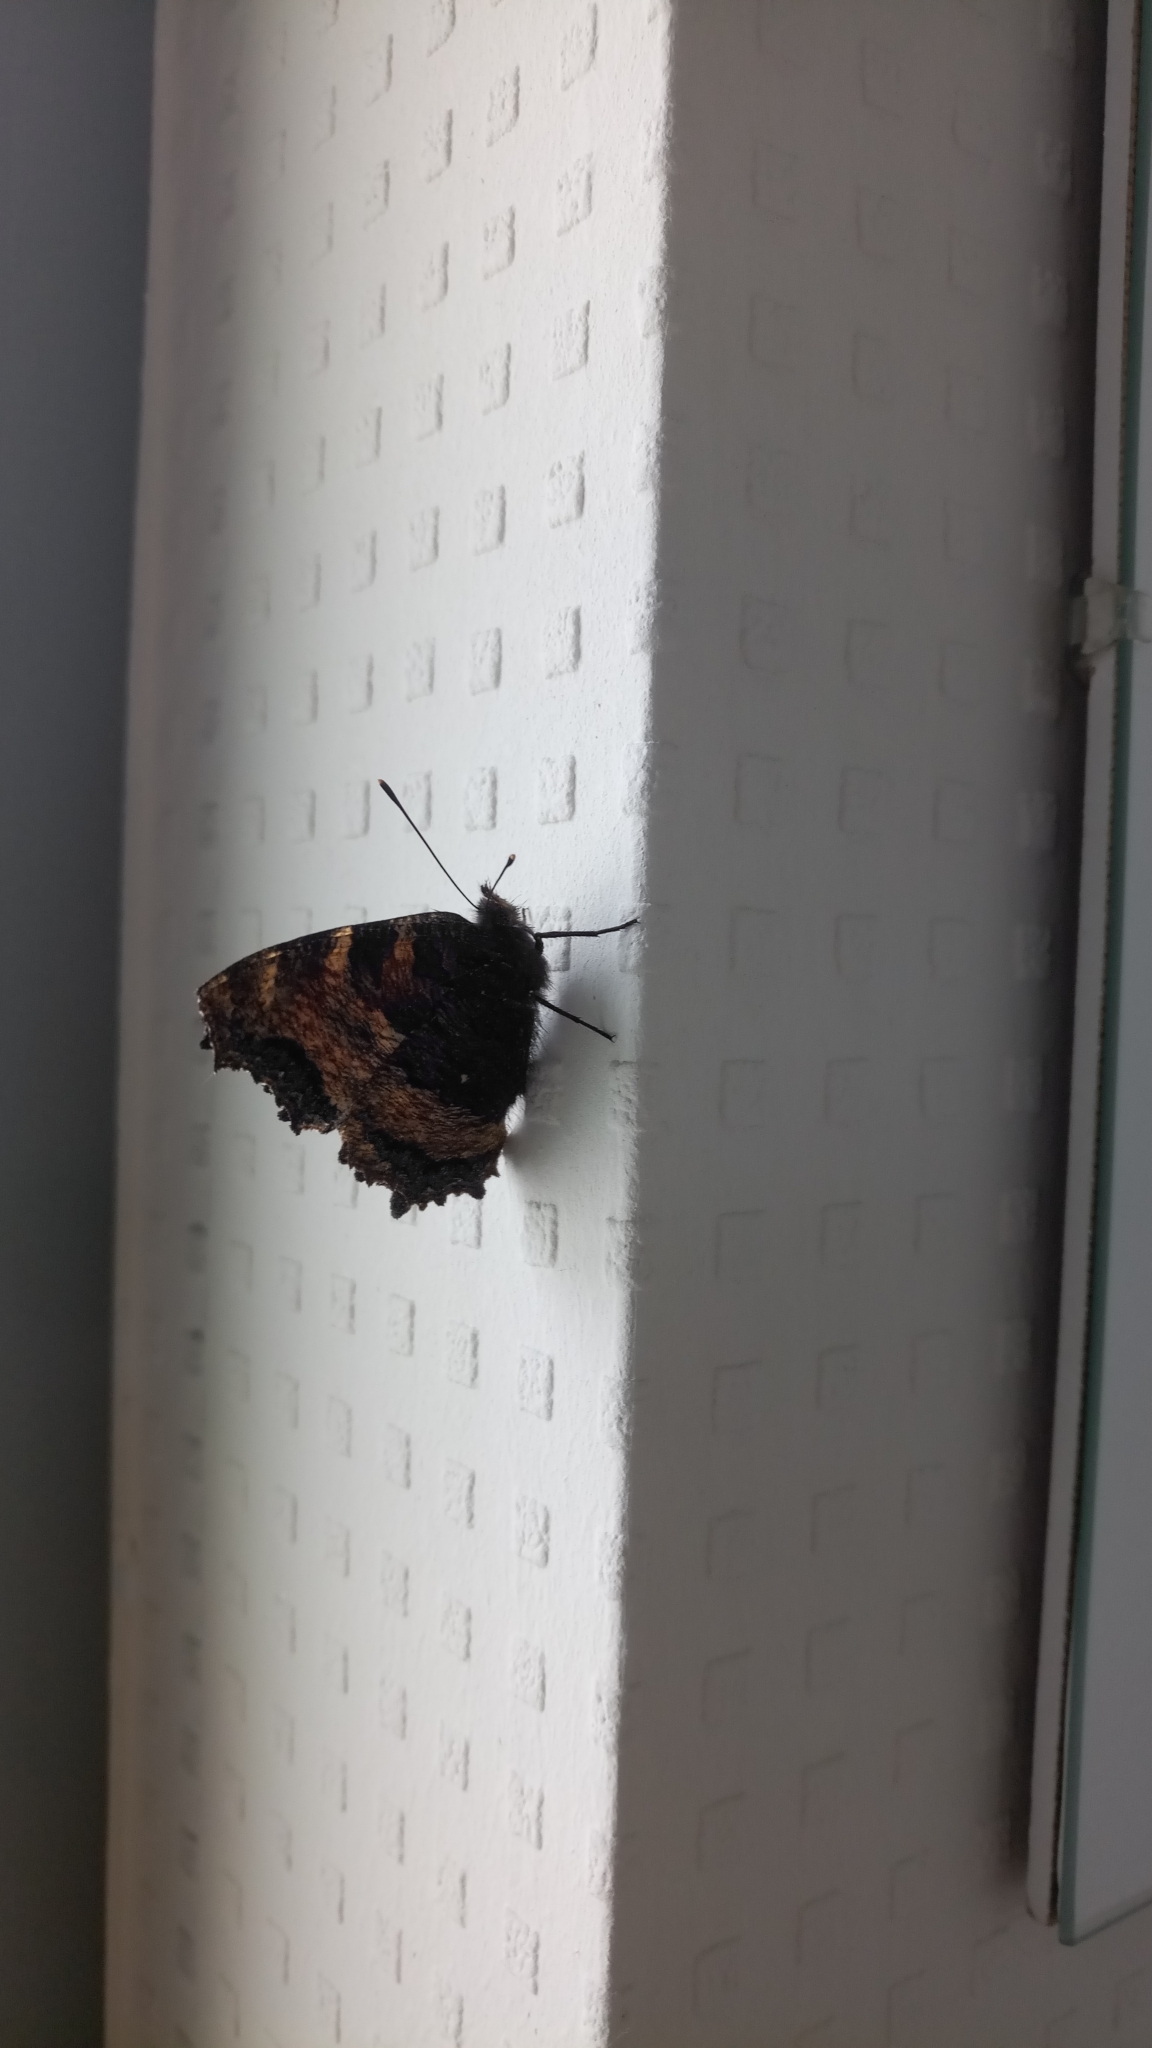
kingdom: Animalia
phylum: Arthropoda
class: Insecta
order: Lepidoptera
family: Nymphalidae
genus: Nymphalis
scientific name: Nymphalis polychloros
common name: Large tortoiseshell
